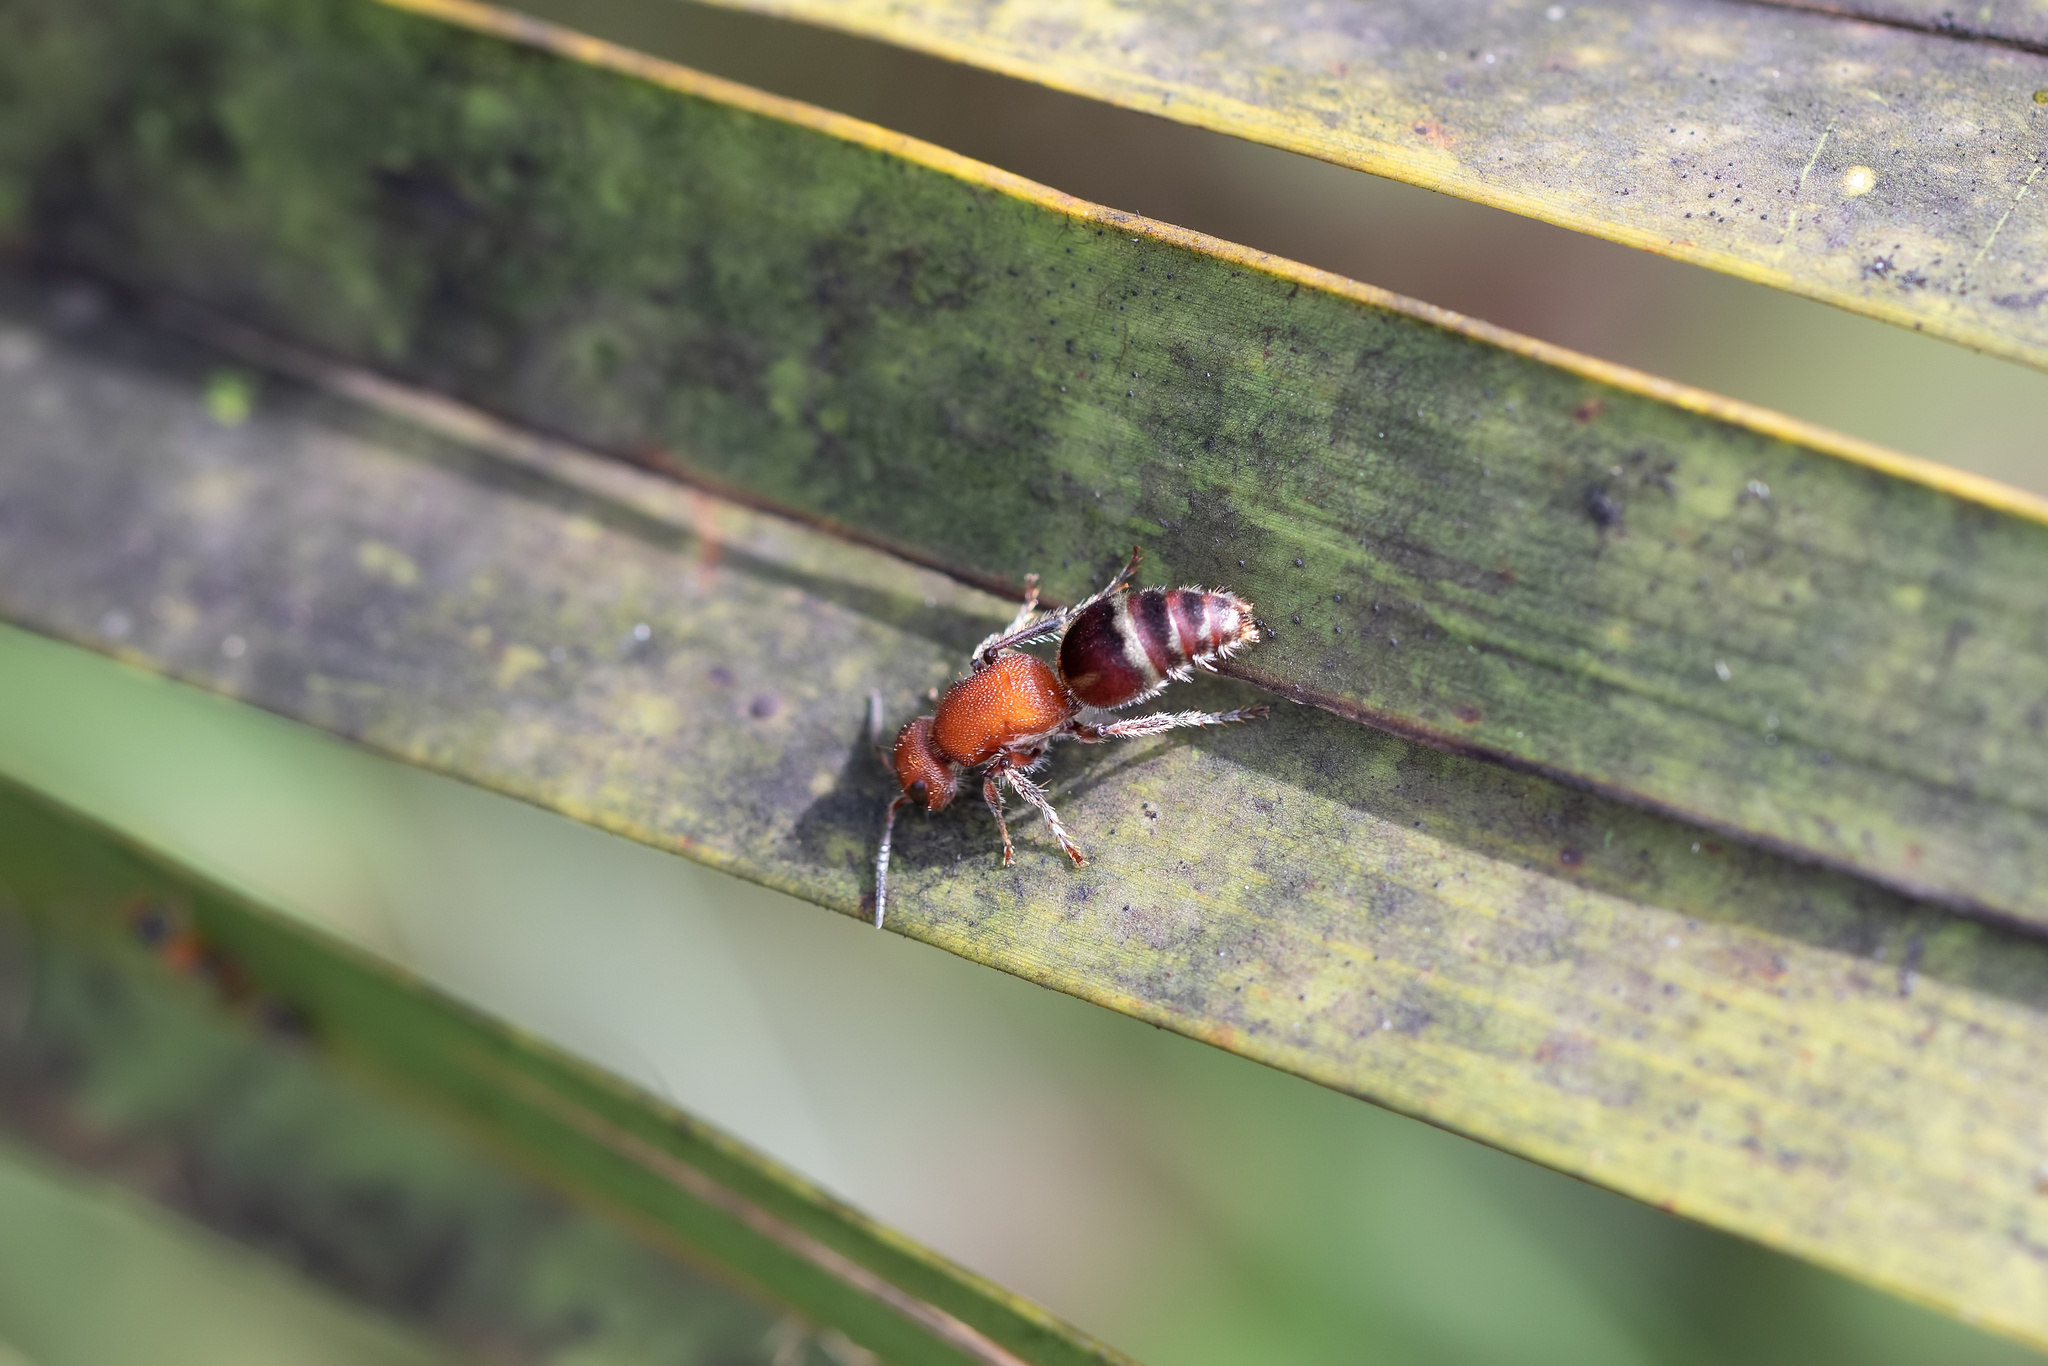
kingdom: Animalia
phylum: Arthropoda
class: Insecta
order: Hymenoptera
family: Mutillidae
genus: Timulla
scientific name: Timulla
